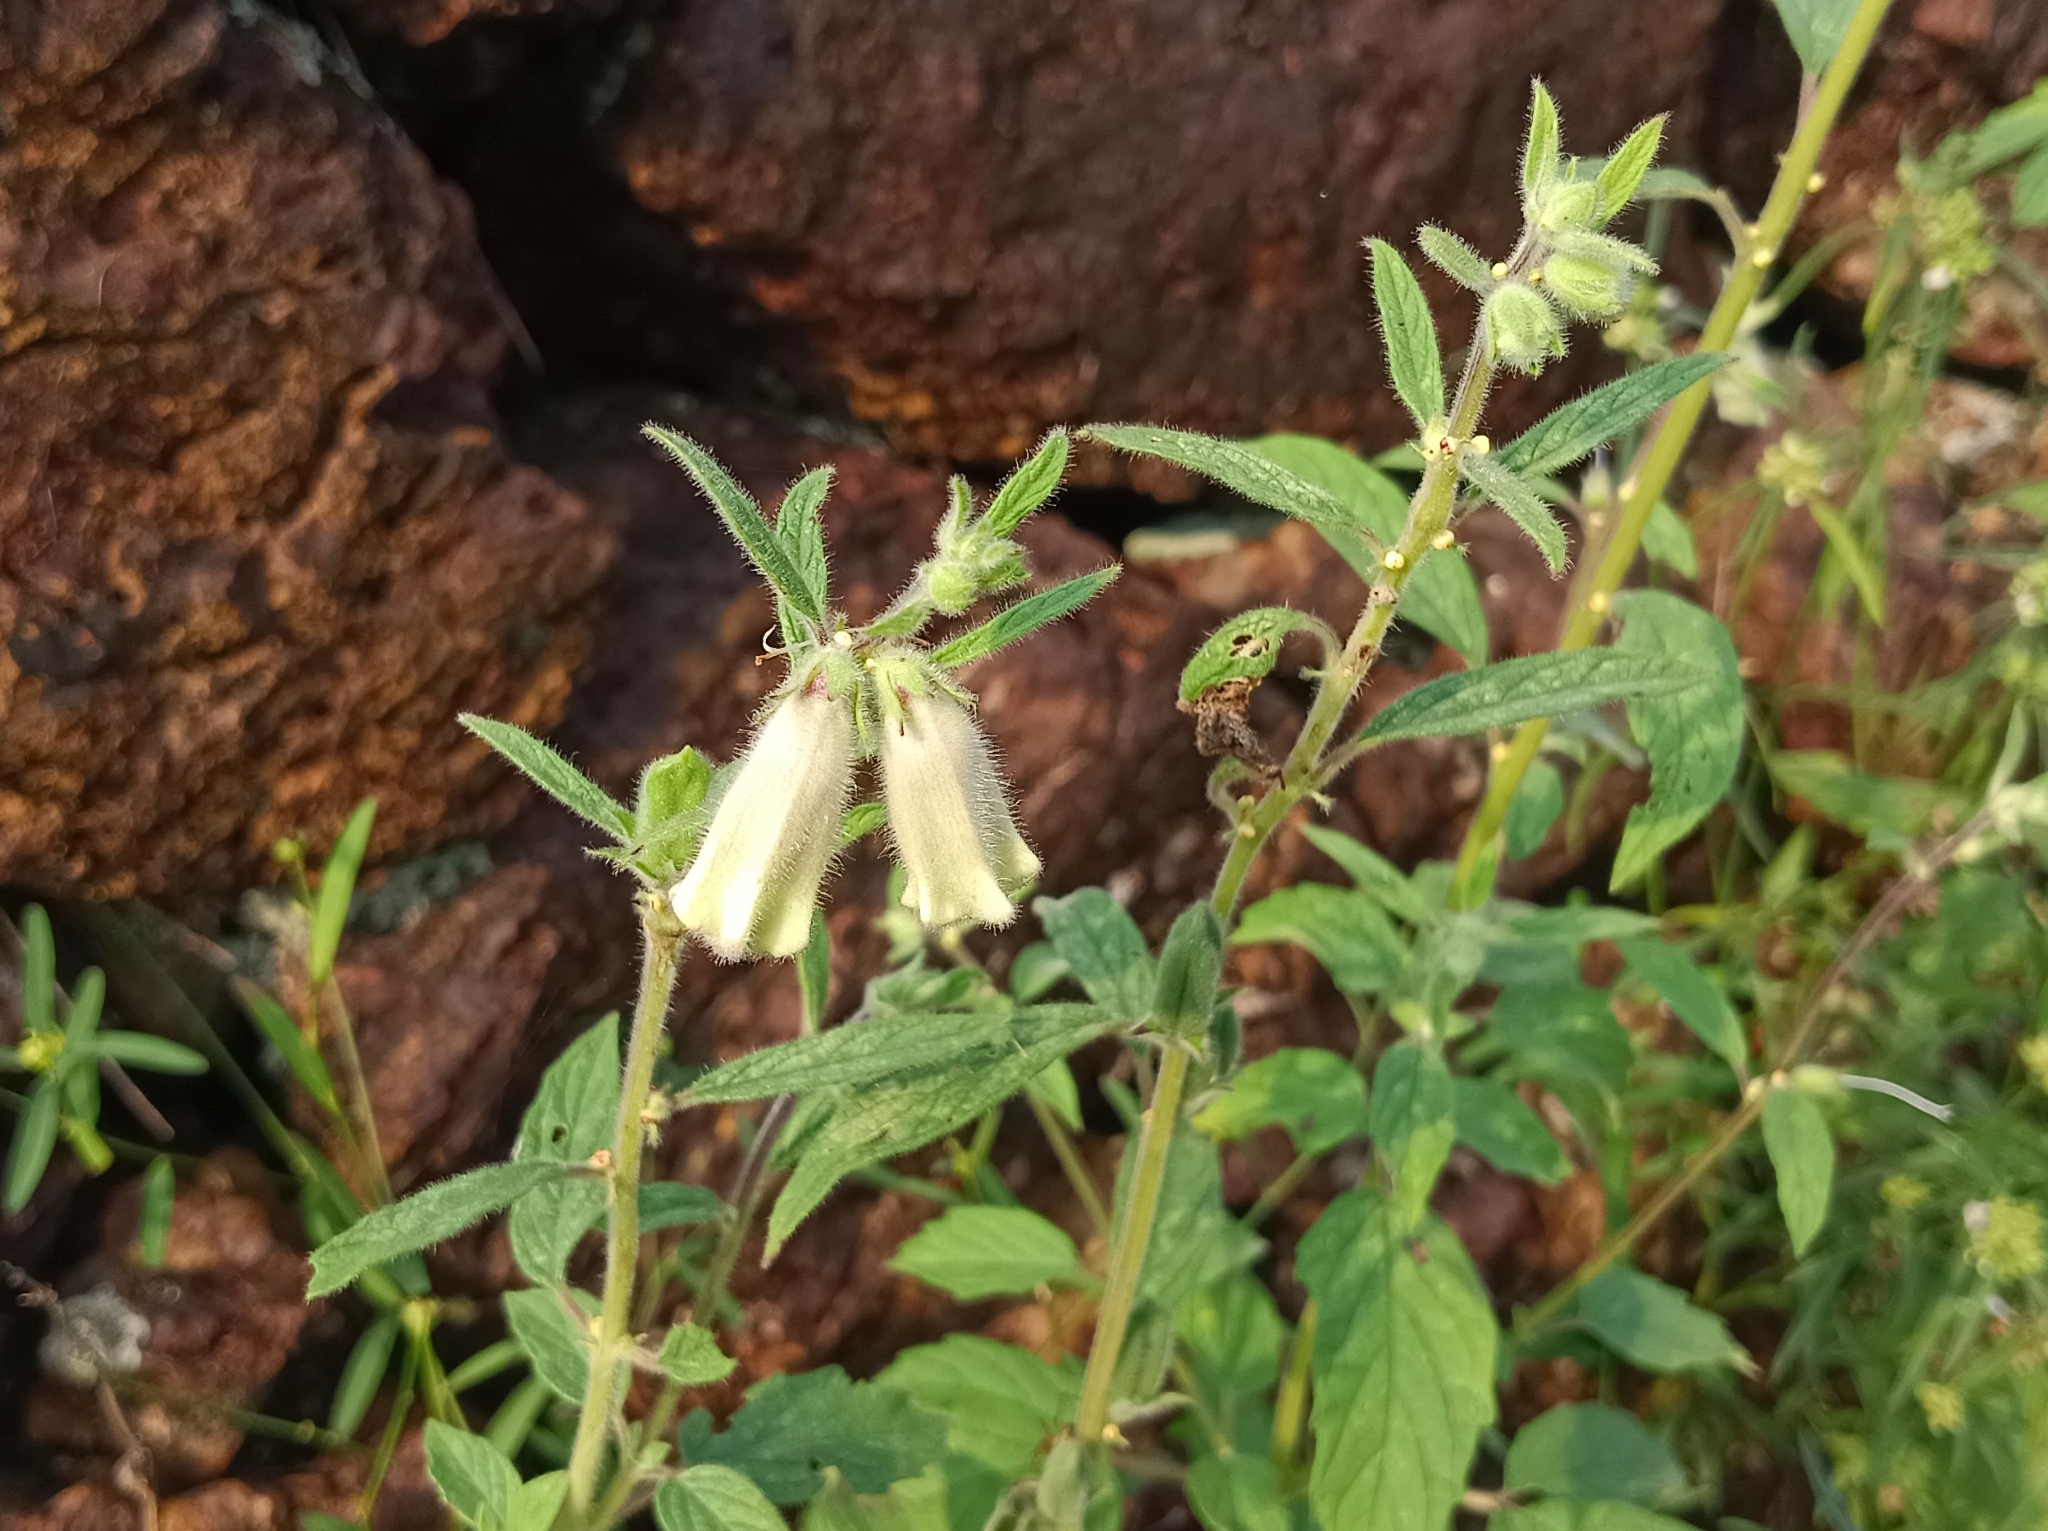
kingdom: Plantae
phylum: Tracheophyta
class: Magnoliopsida
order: Lamiales
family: Pedaliaceae
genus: Sesamum
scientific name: Sesamum indicum
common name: Sesame
